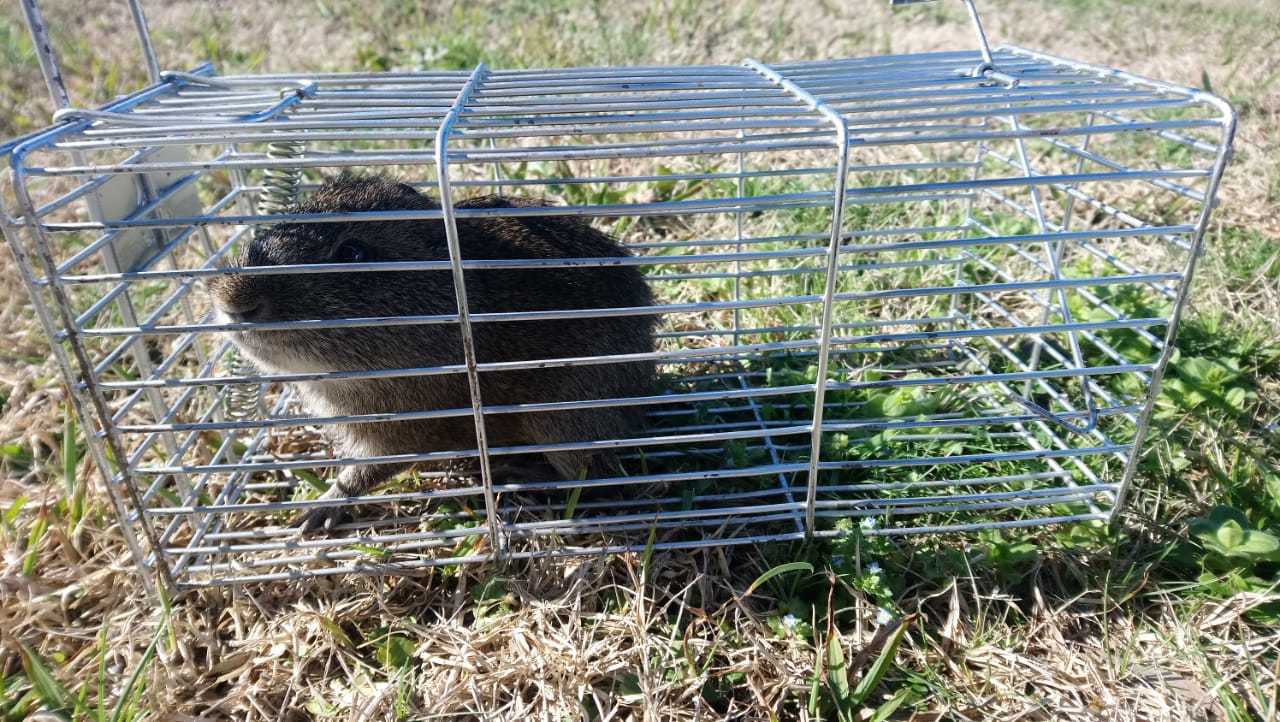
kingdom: Animalia
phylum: Chordata
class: Mammalia
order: Rodentia
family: Caviidae
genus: Cavia
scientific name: Cavia aperea
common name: Brazilian guinea pig
